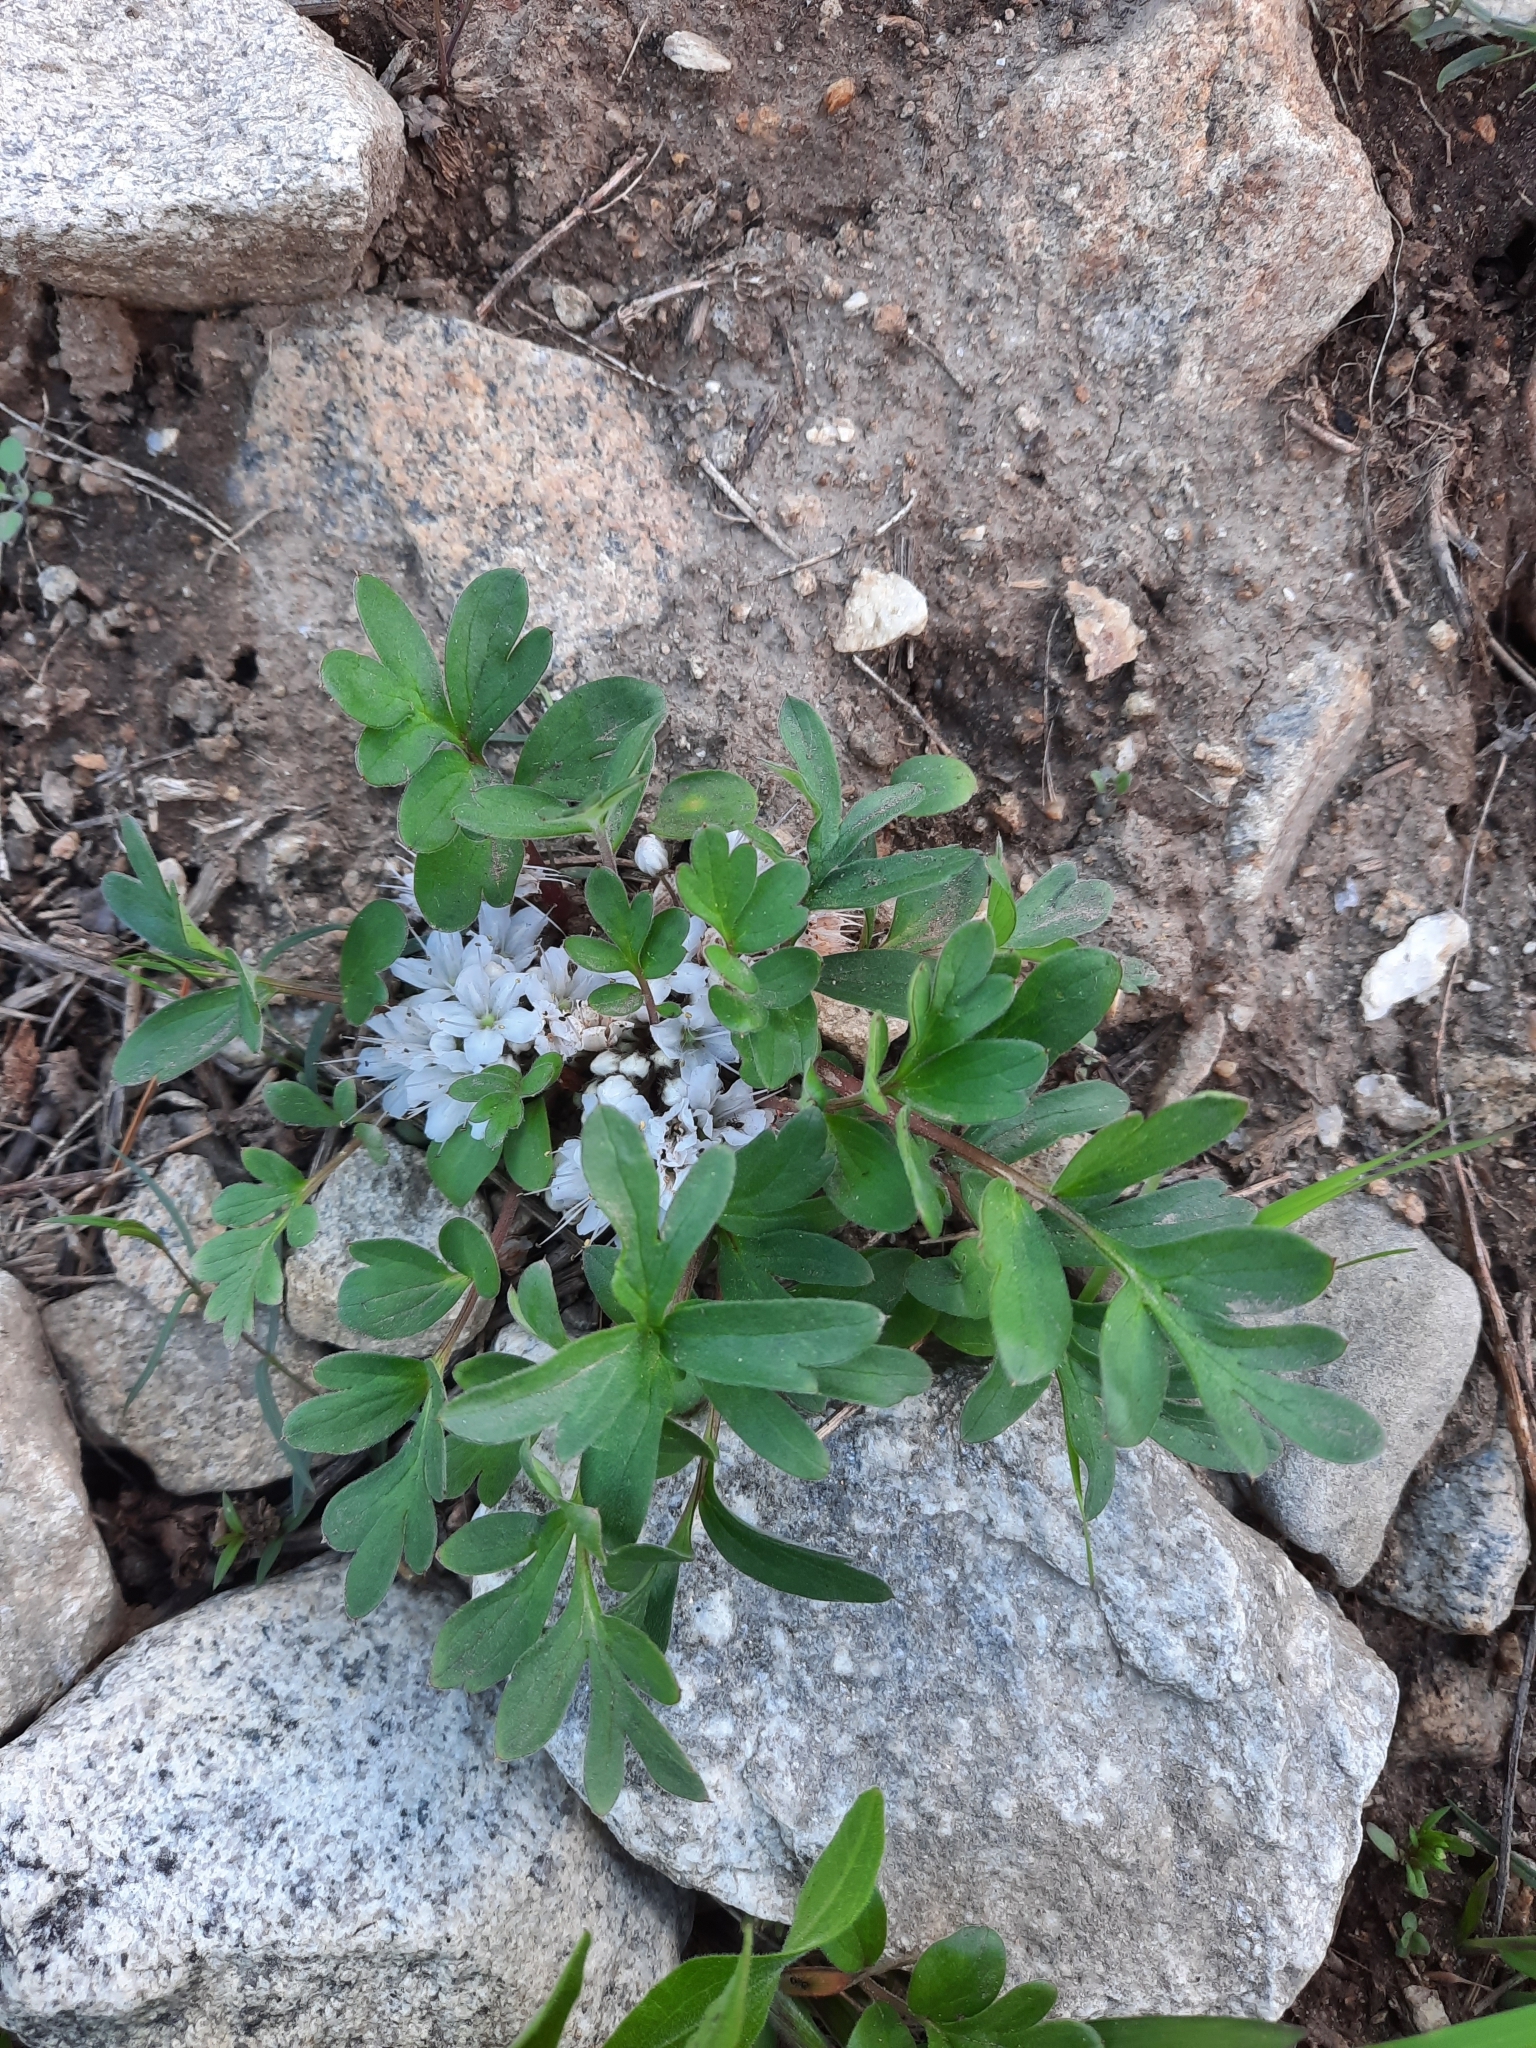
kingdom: Plantae
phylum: Tracheophyta
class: Magnoliopsida
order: Boraginales
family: Hydrophyllaceae
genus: Hydrophyllum
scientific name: Hydrophyllum alpestre
